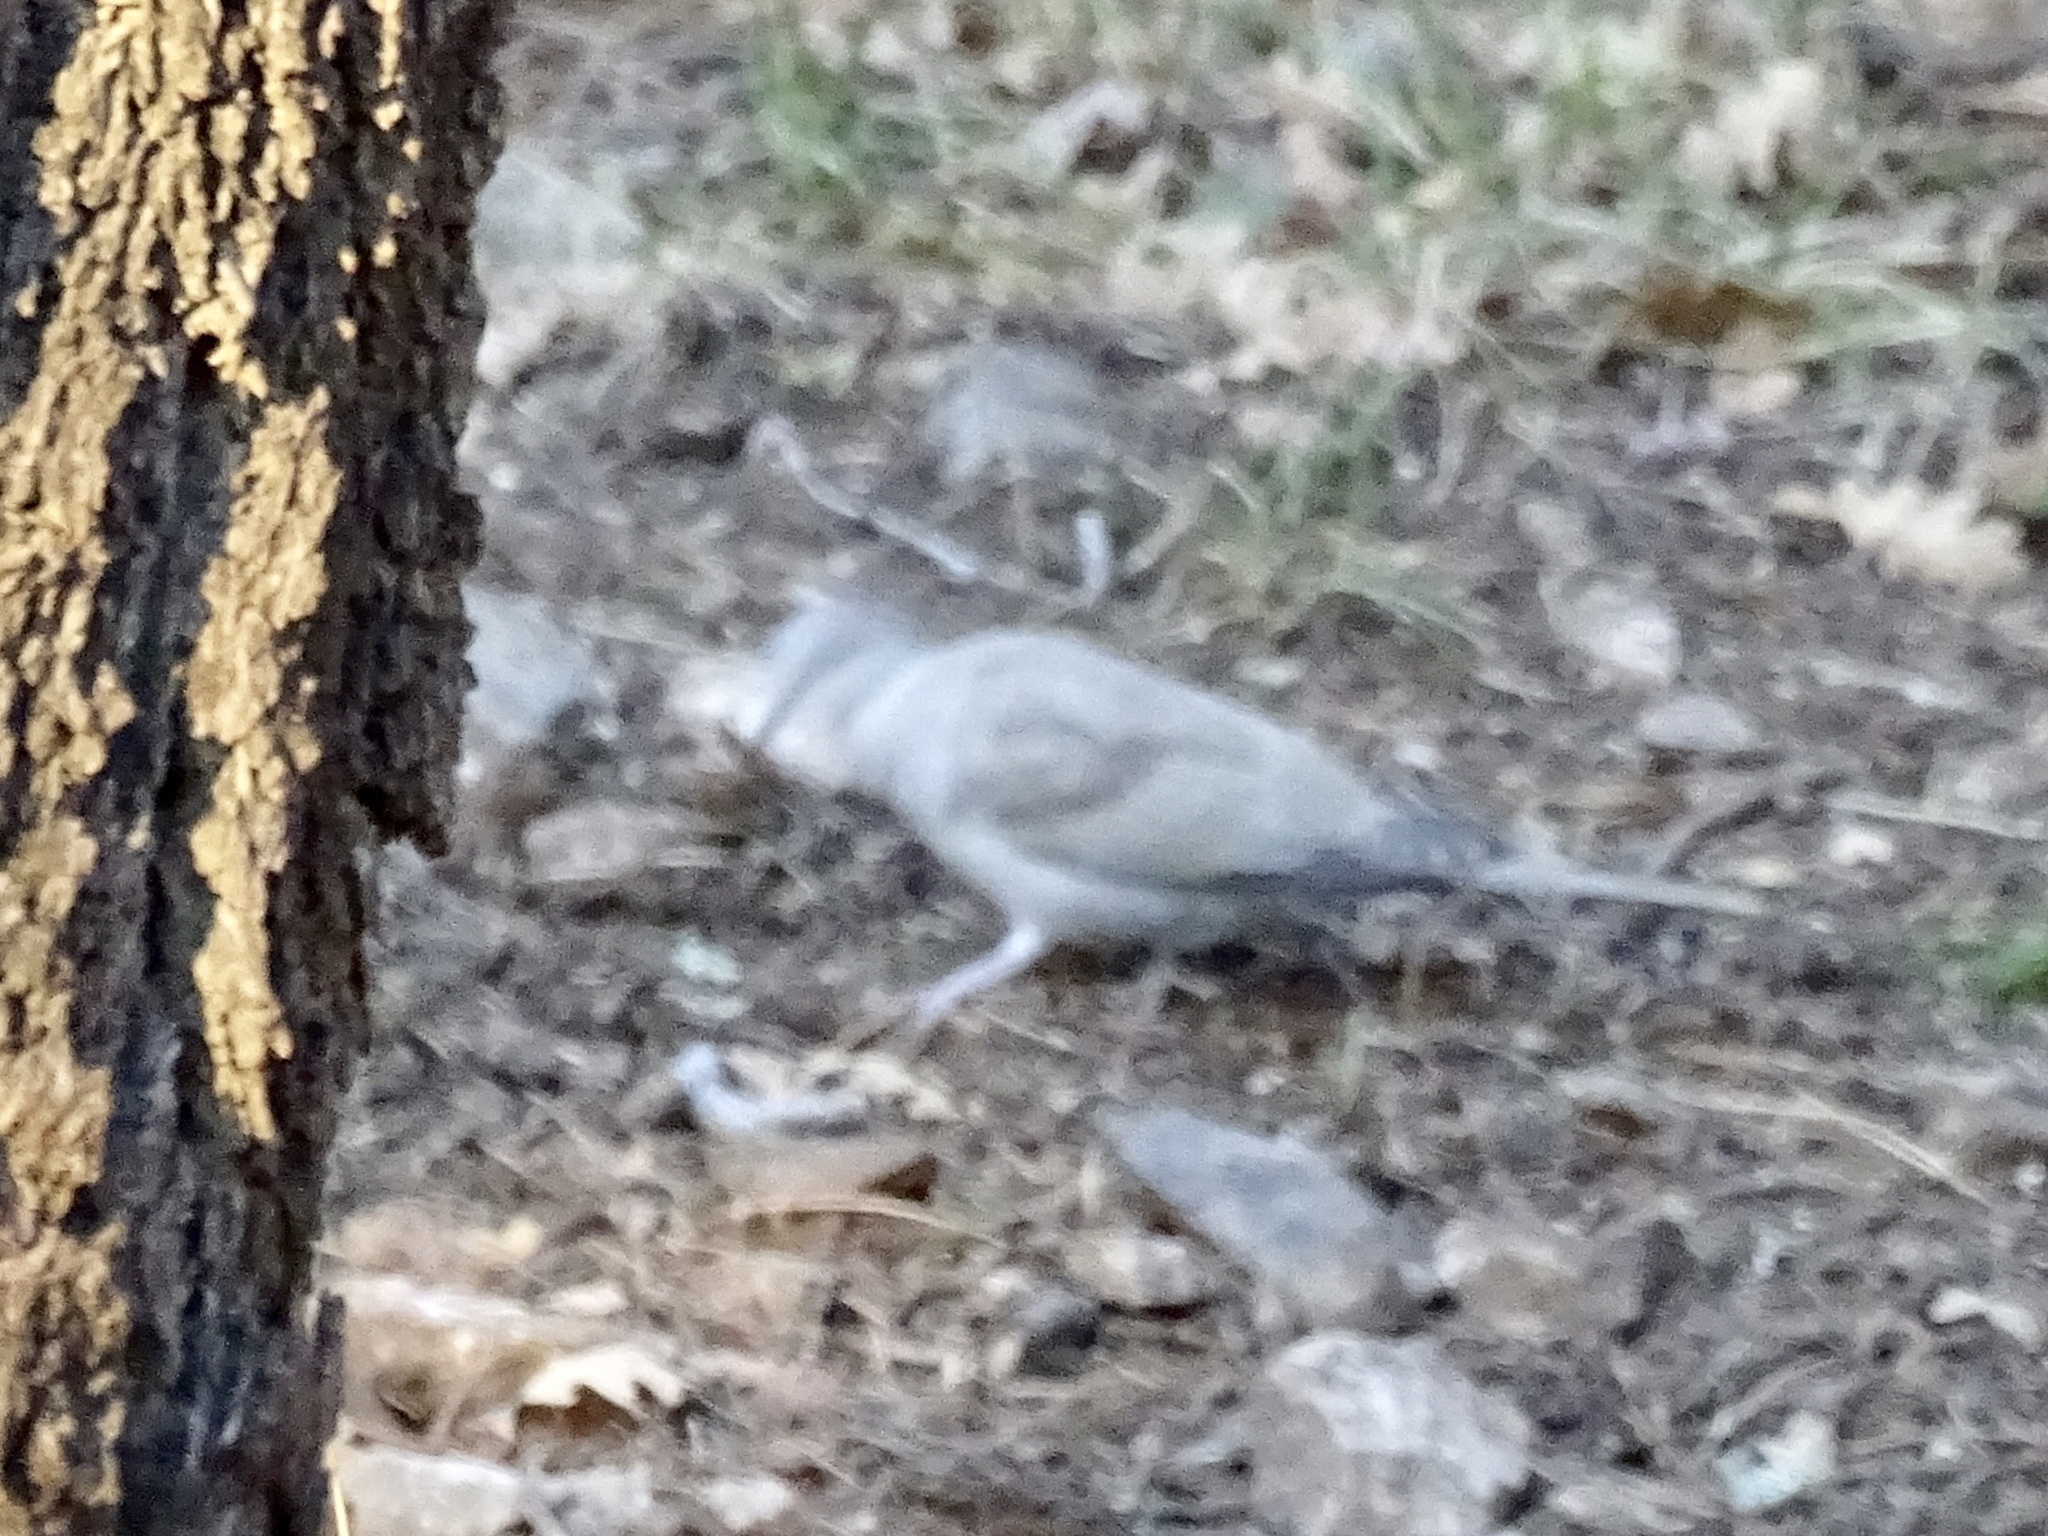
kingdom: Animalia
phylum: Chordata
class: Aves
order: Columbiformes
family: Columbidae
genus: Streptopelia
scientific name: Streptopelia decaocto
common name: Eurasian collared dove
